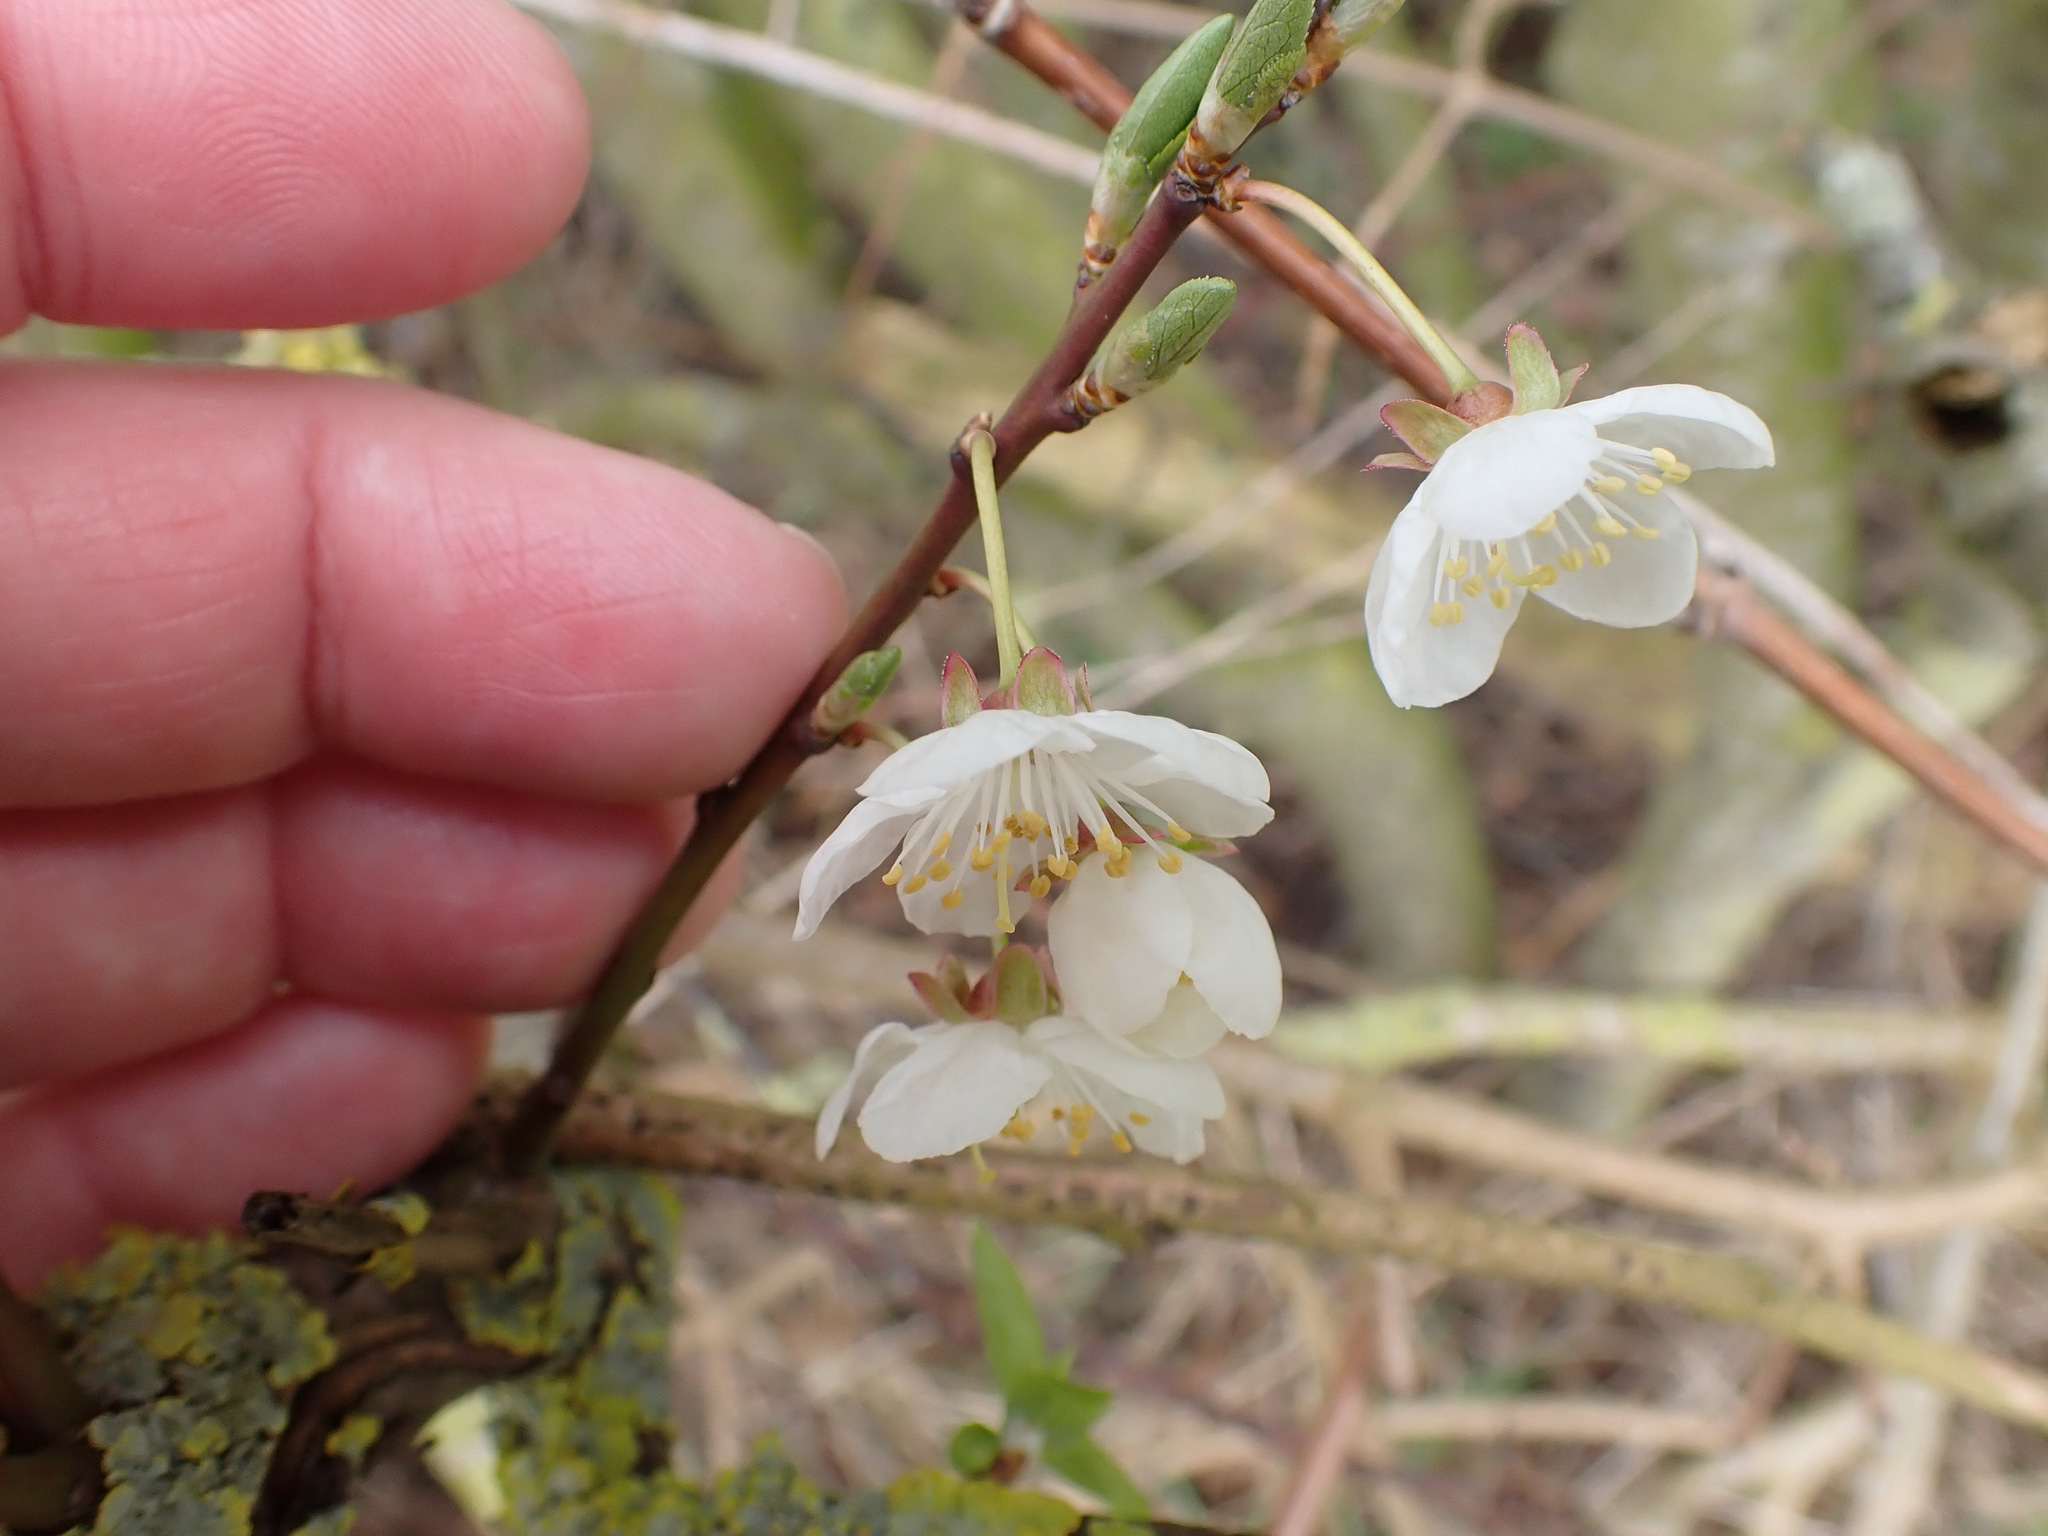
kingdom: Plantae
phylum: Tracheophyta
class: Magnoliopsida
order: Rosales
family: Rosaceae
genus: Prunus
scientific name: Prunus cerasifera
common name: Cherry plum
